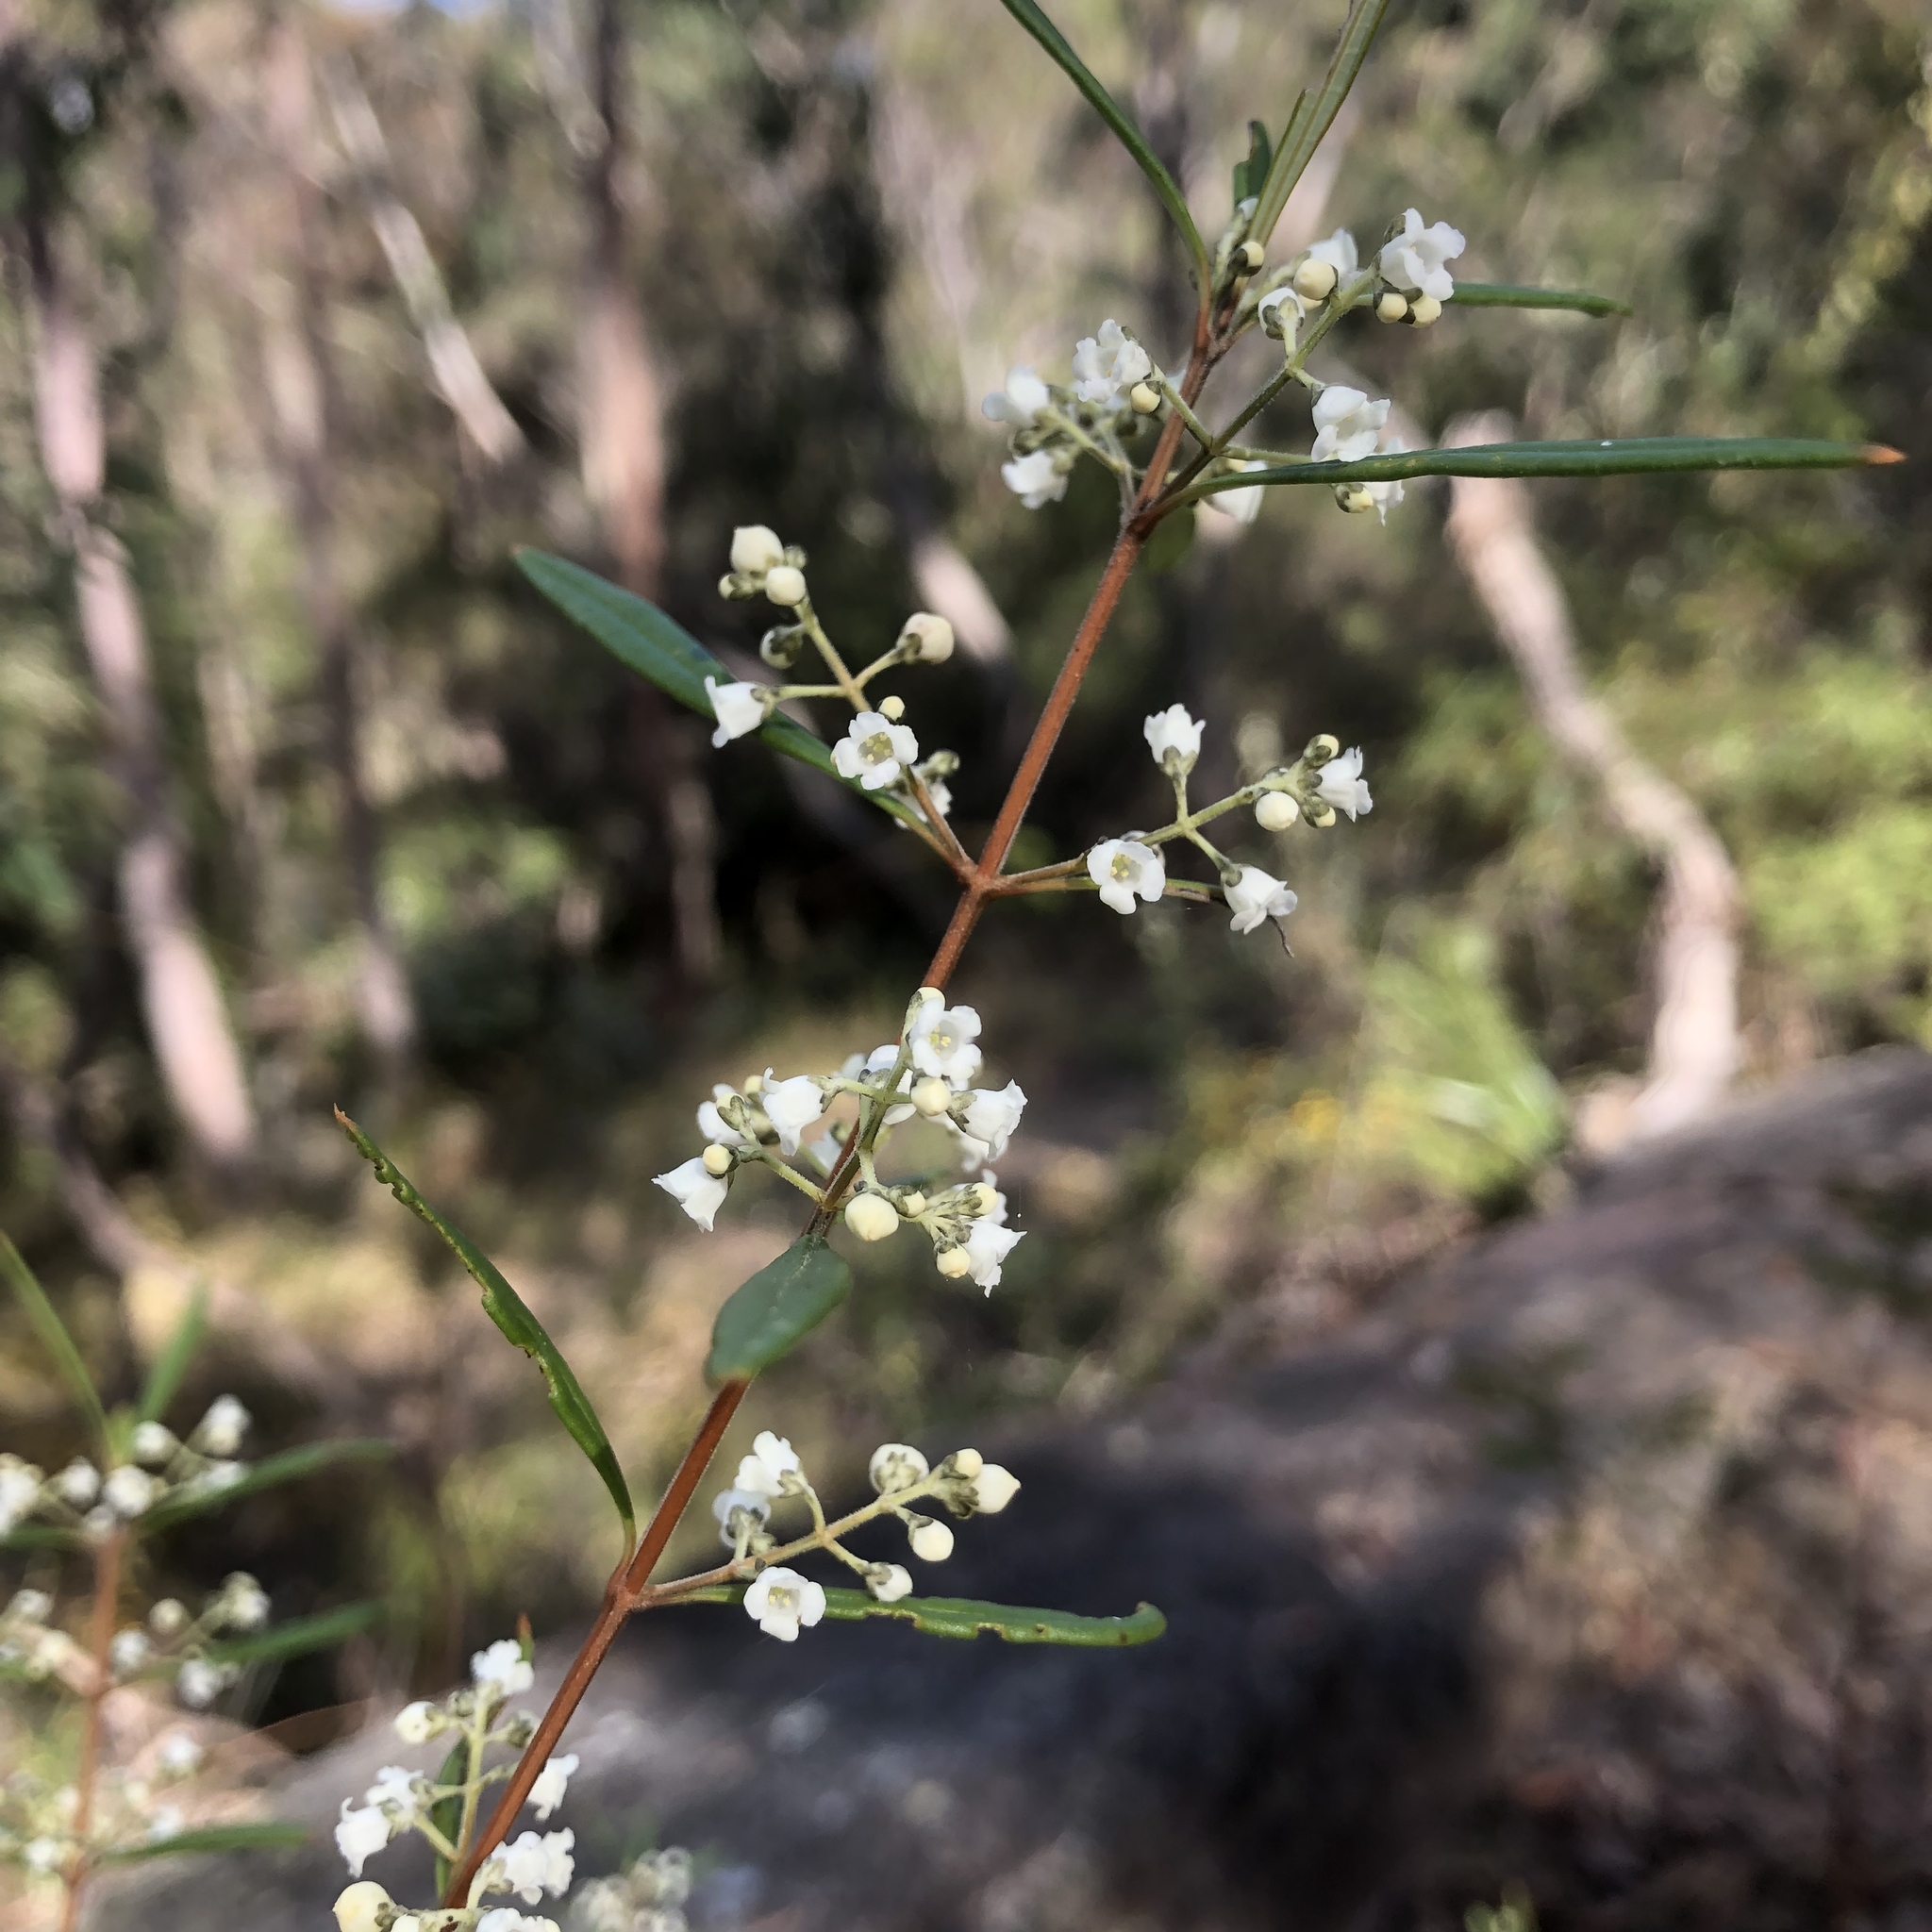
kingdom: Plantae
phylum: Tracheophyta
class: Magnoliopsida
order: Gentianales
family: Loganiaceae
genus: Logania
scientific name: Logania albiflora
